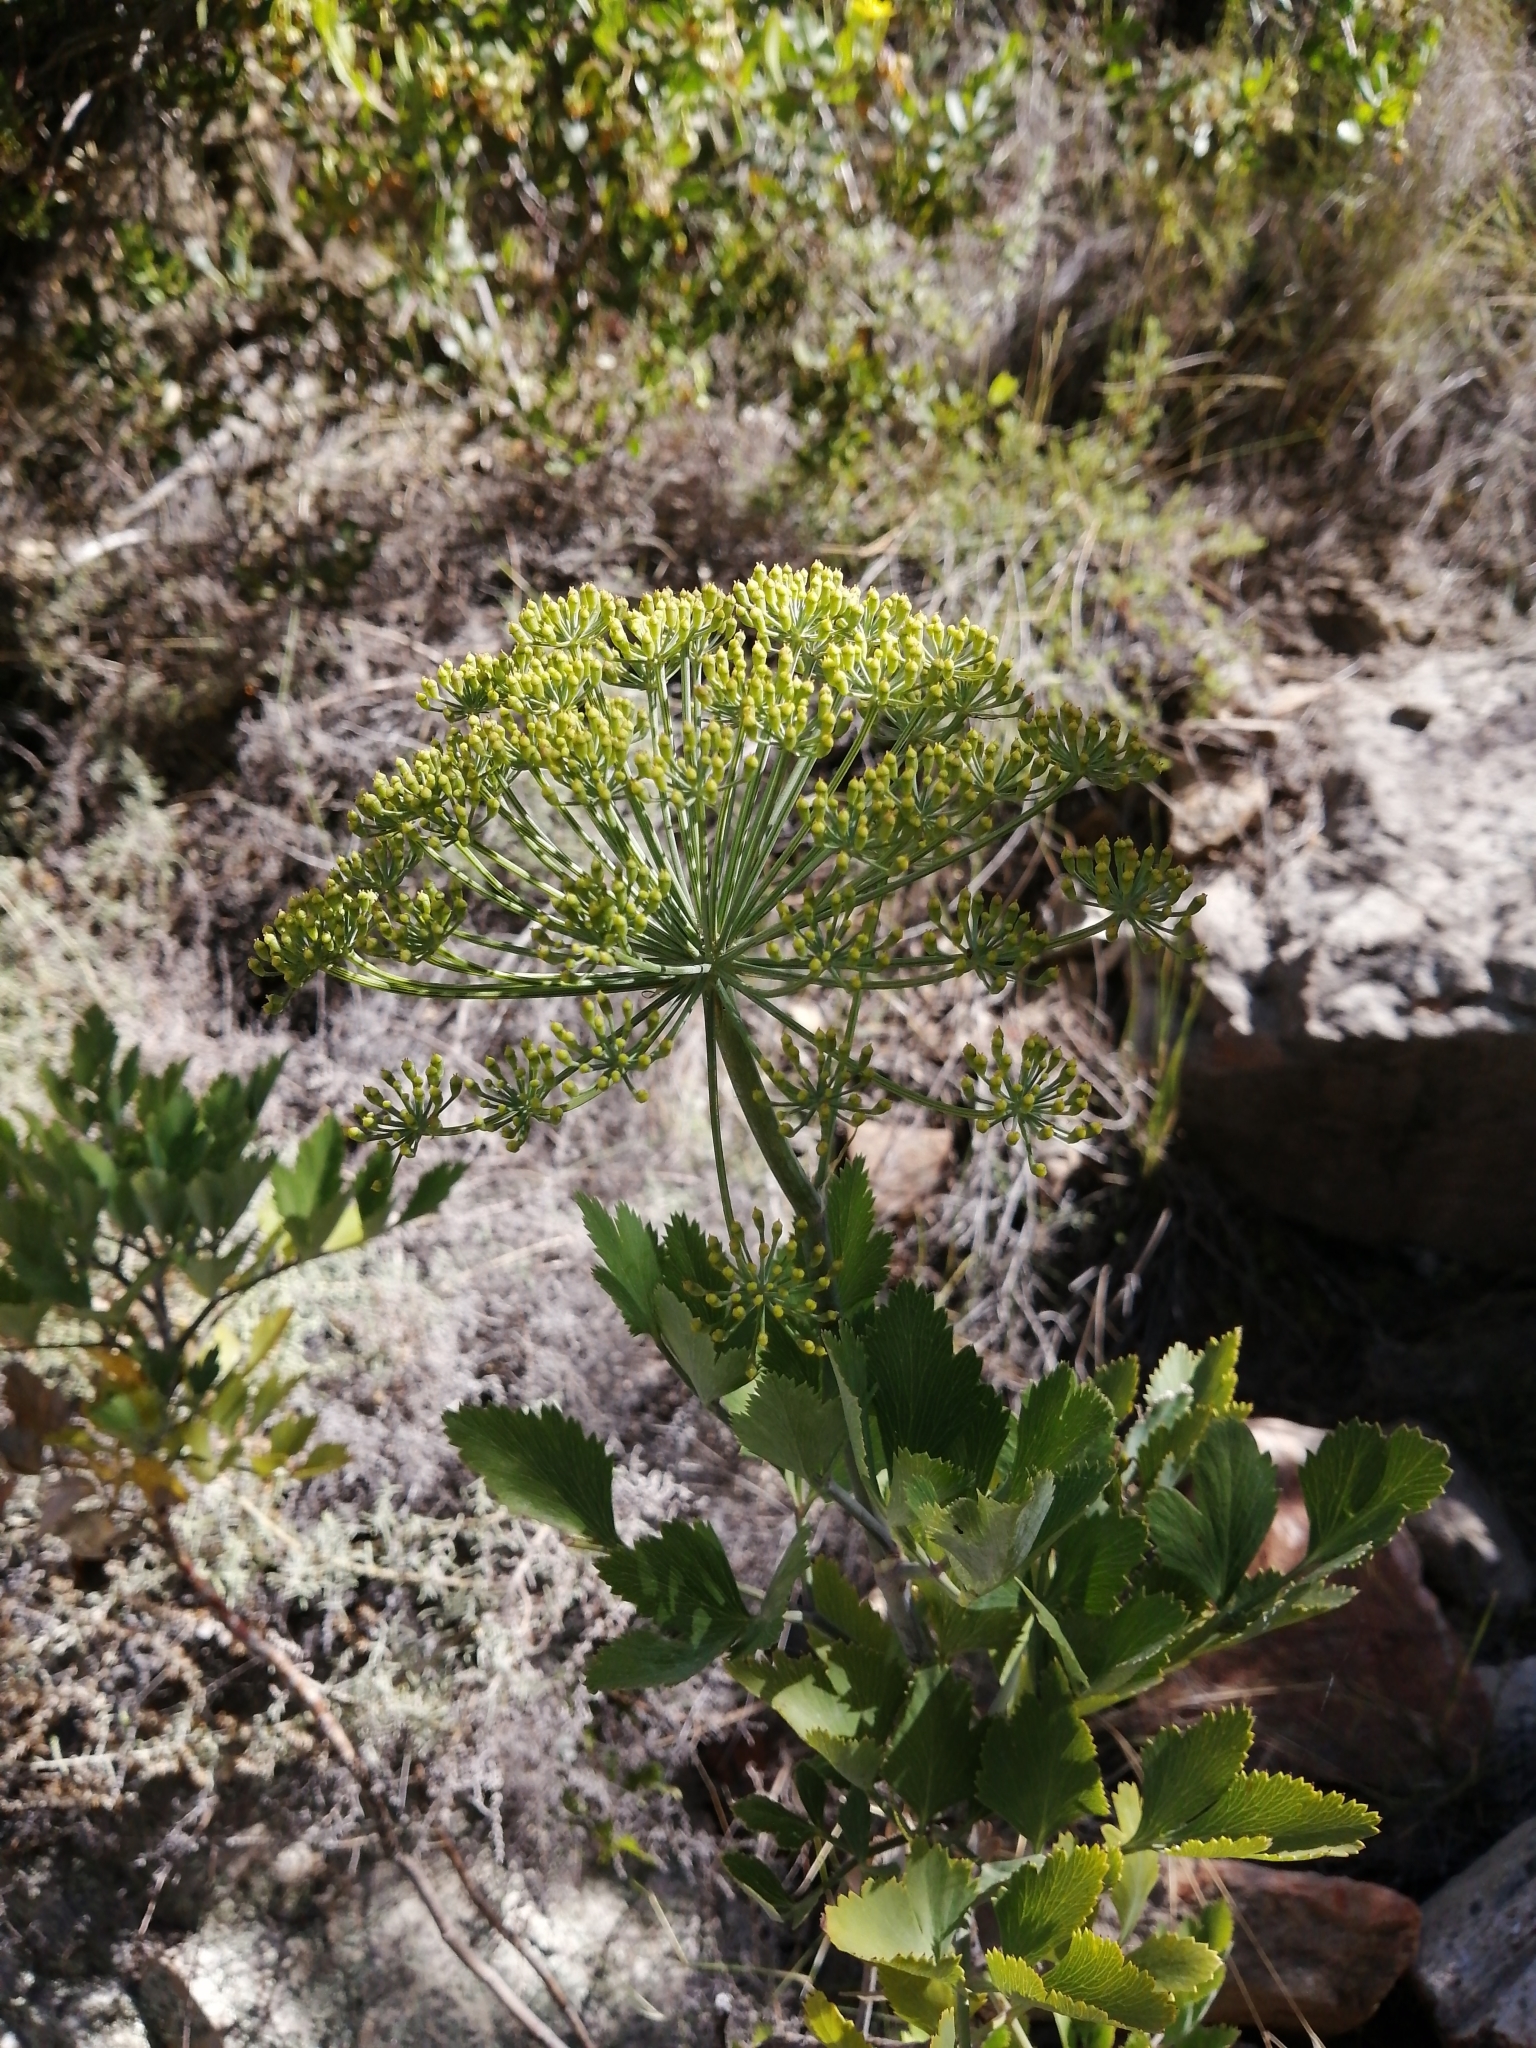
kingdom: Plantae
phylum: Tracheophyta
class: Magnoliopsida
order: Apiales
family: Apiaceae
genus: Notobubon
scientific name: Notobubon galbanum
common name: Blisterbush
